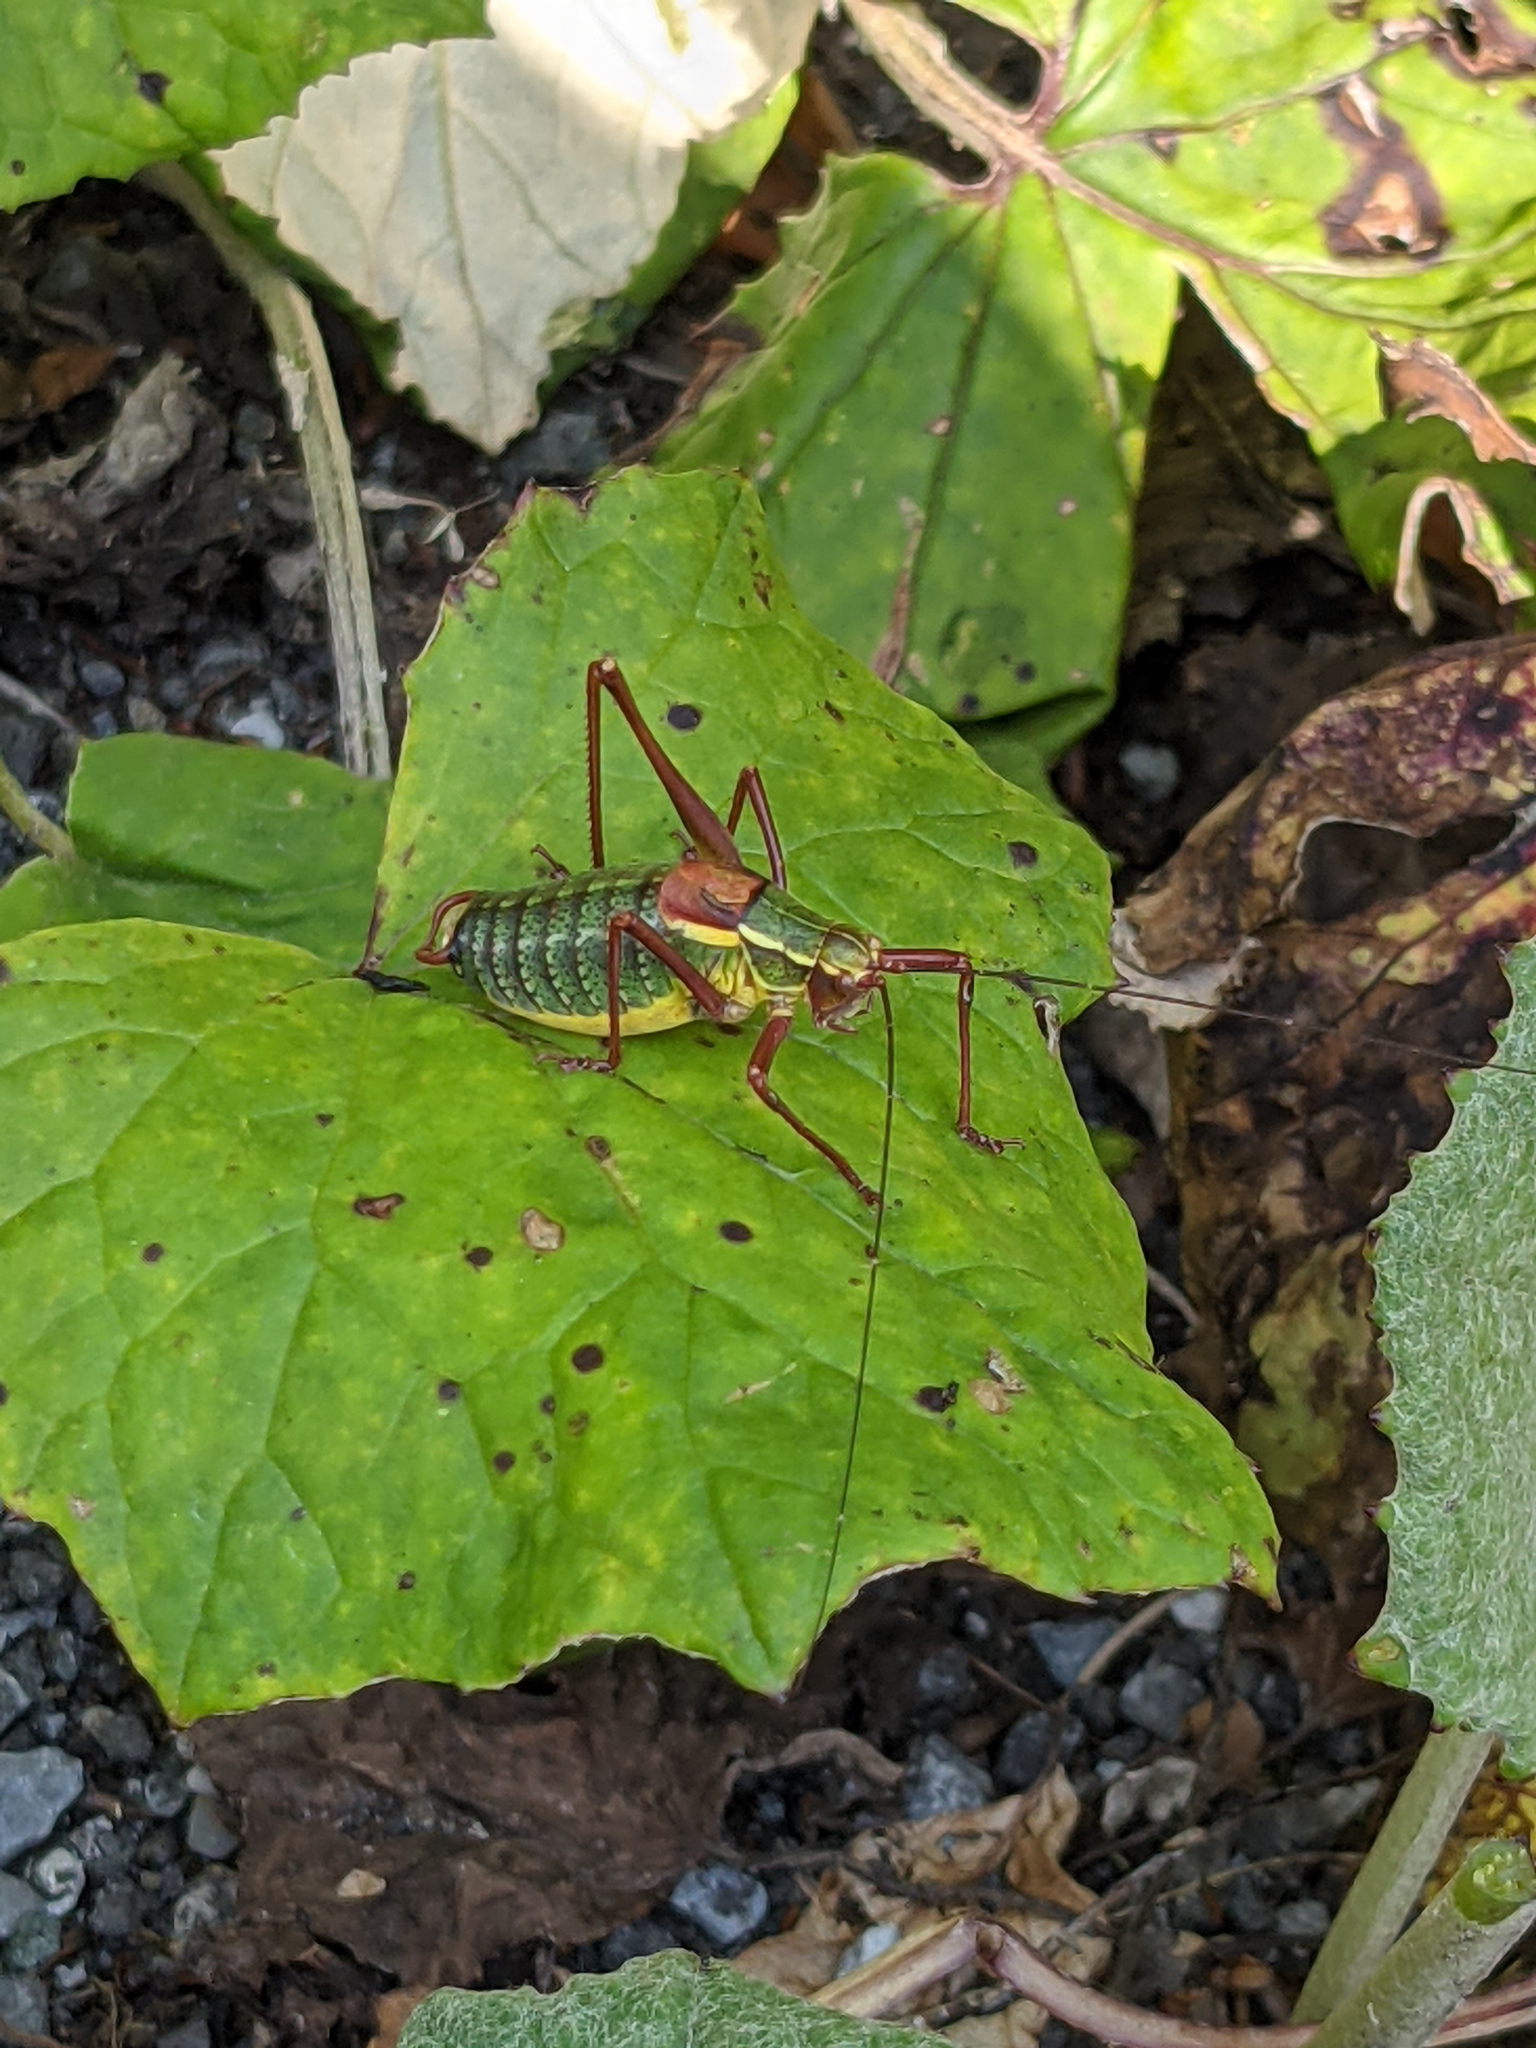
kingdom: Animalia
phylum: Arthropoda
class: Insecta
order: Orthoptera
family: Tettigoniidae
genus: Barbitistes
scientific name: Barbitistes serricauda
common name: Saw-tailed bush-cricket
